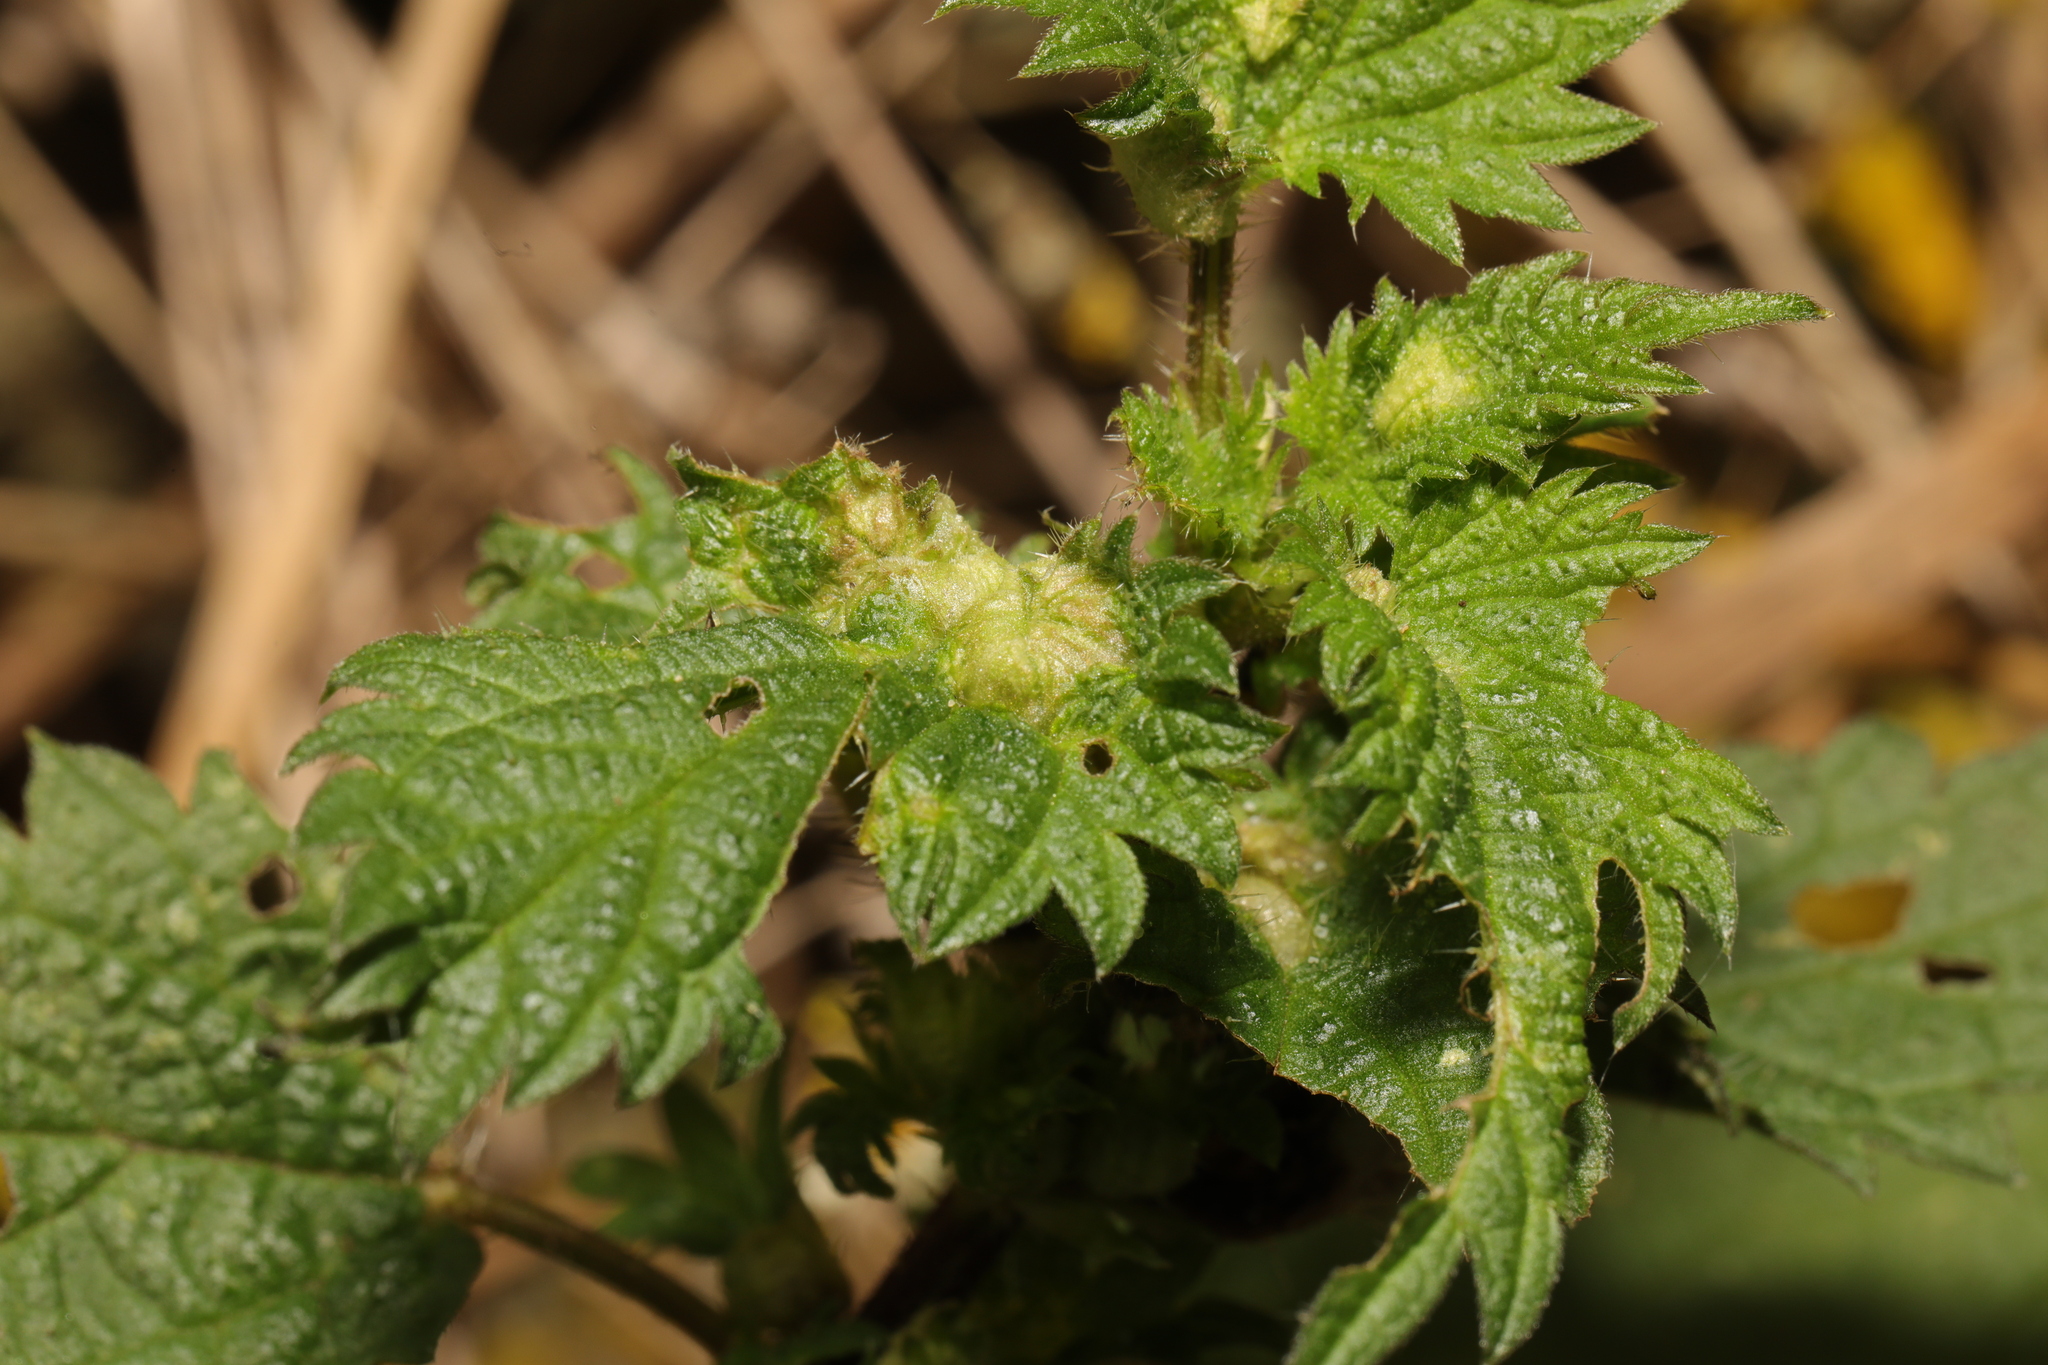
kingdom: Animalia
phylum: Arthropoda
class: Insecta
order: Diptera
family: Cecidomyiidae
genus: Dasineura
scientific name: Dasineura urticae
